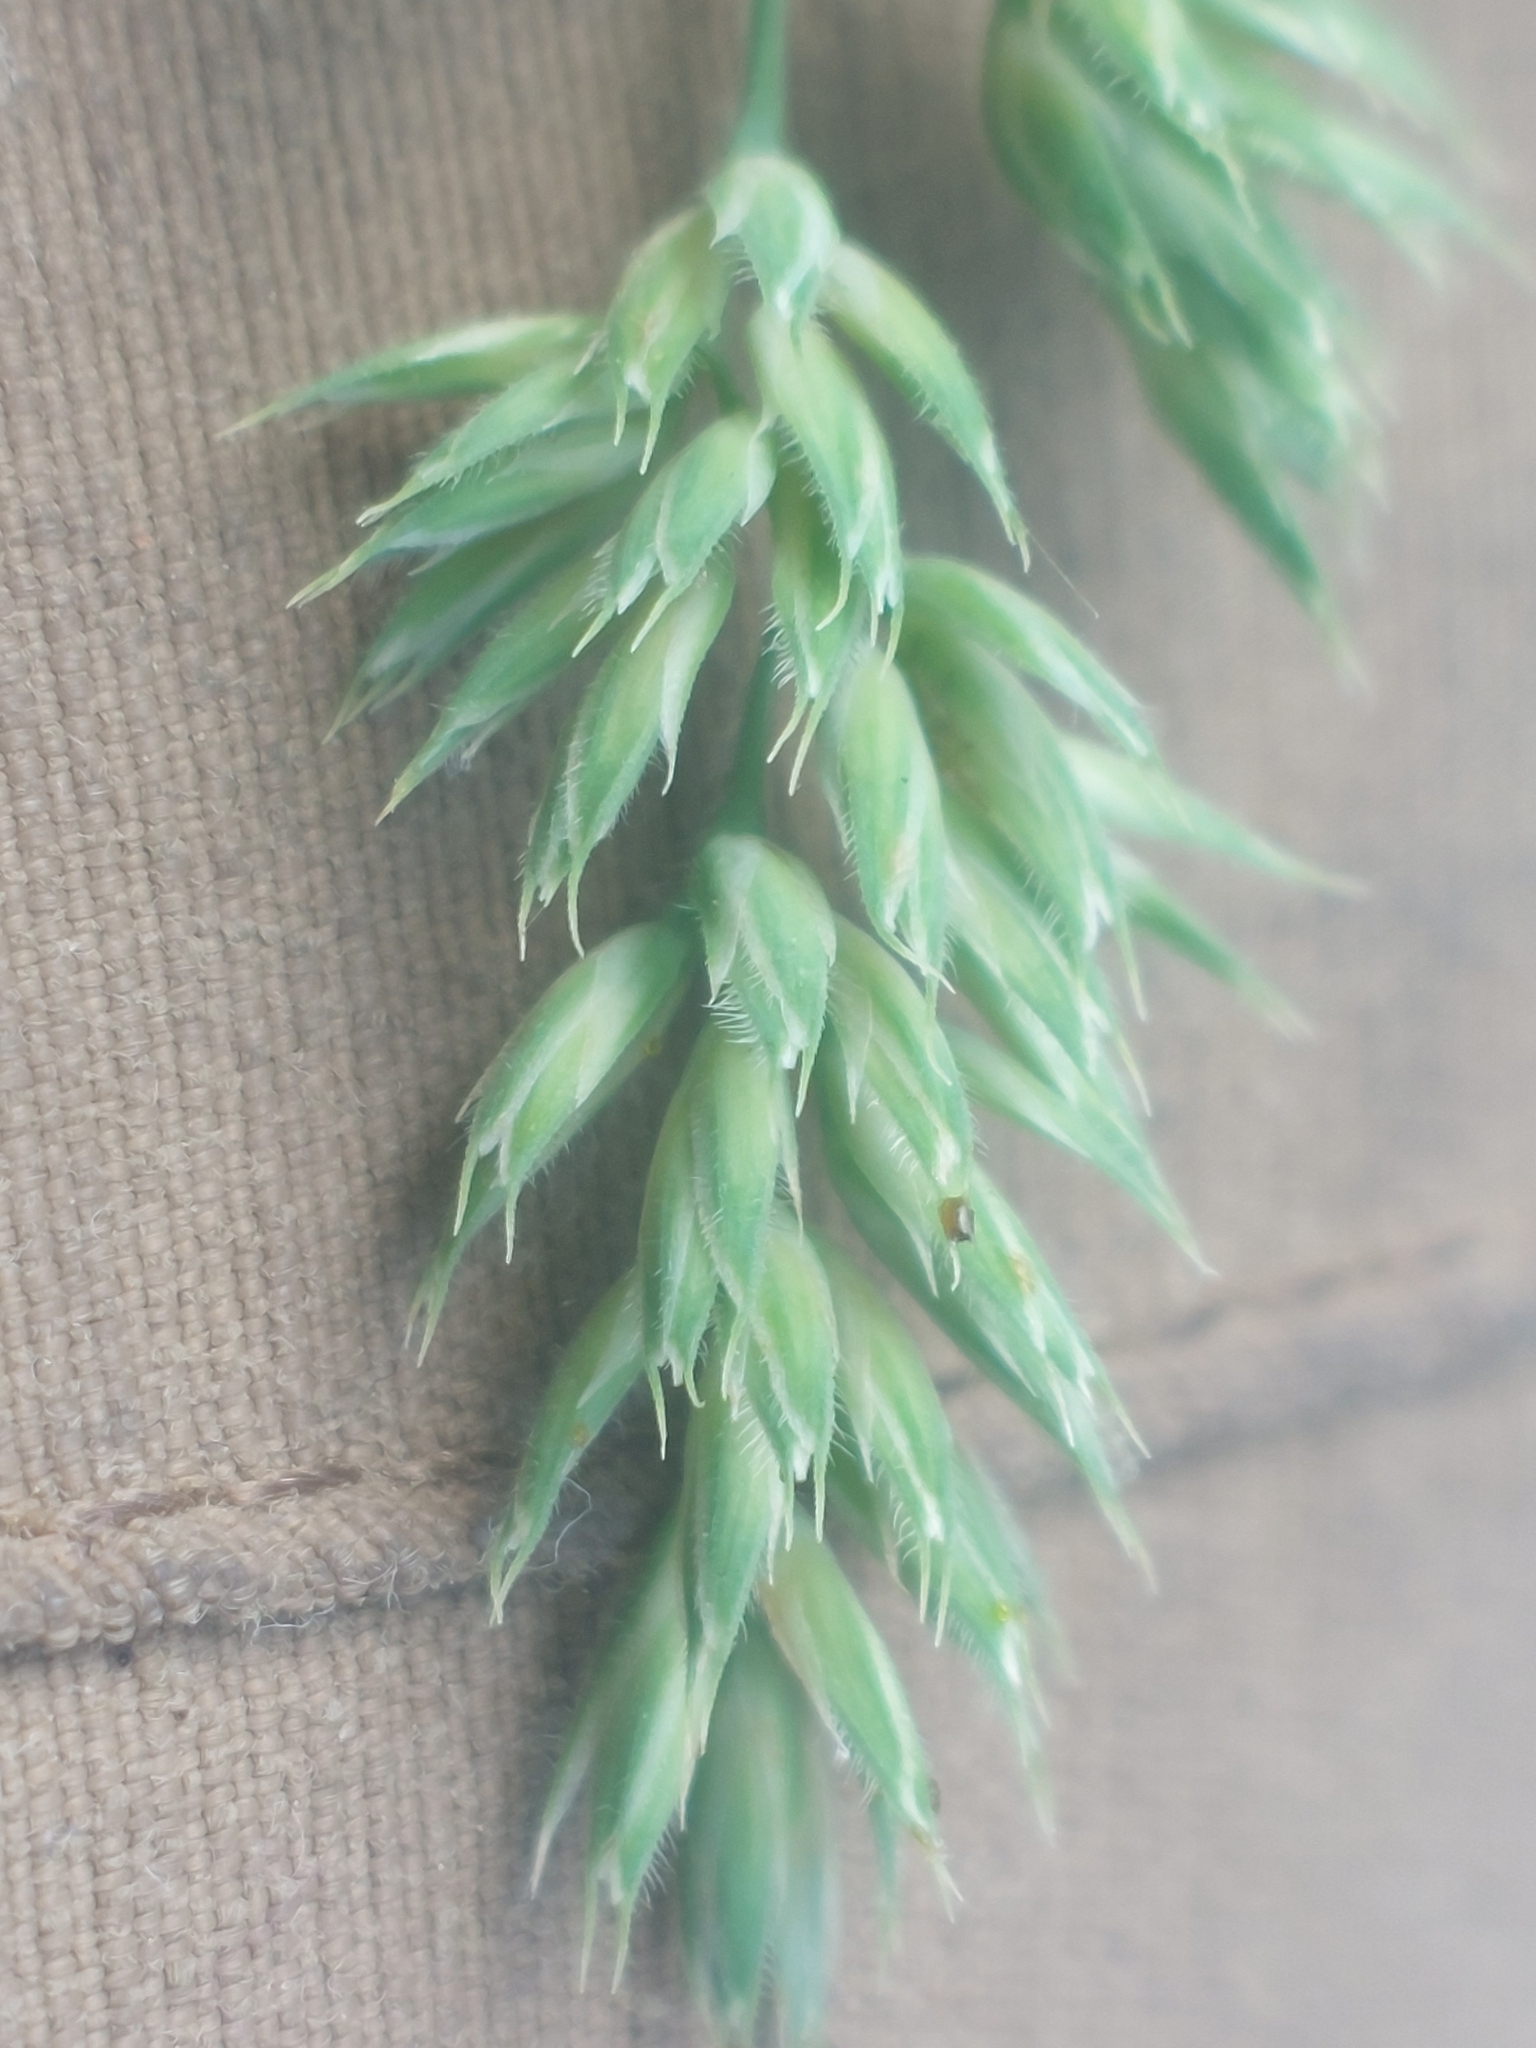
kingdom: Plantae
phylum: Tracheophyta
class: Liliopsida
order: Poales
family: Poaceae
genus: Dactylis
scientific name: Dactylis glomerata
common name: Orchardgrass
